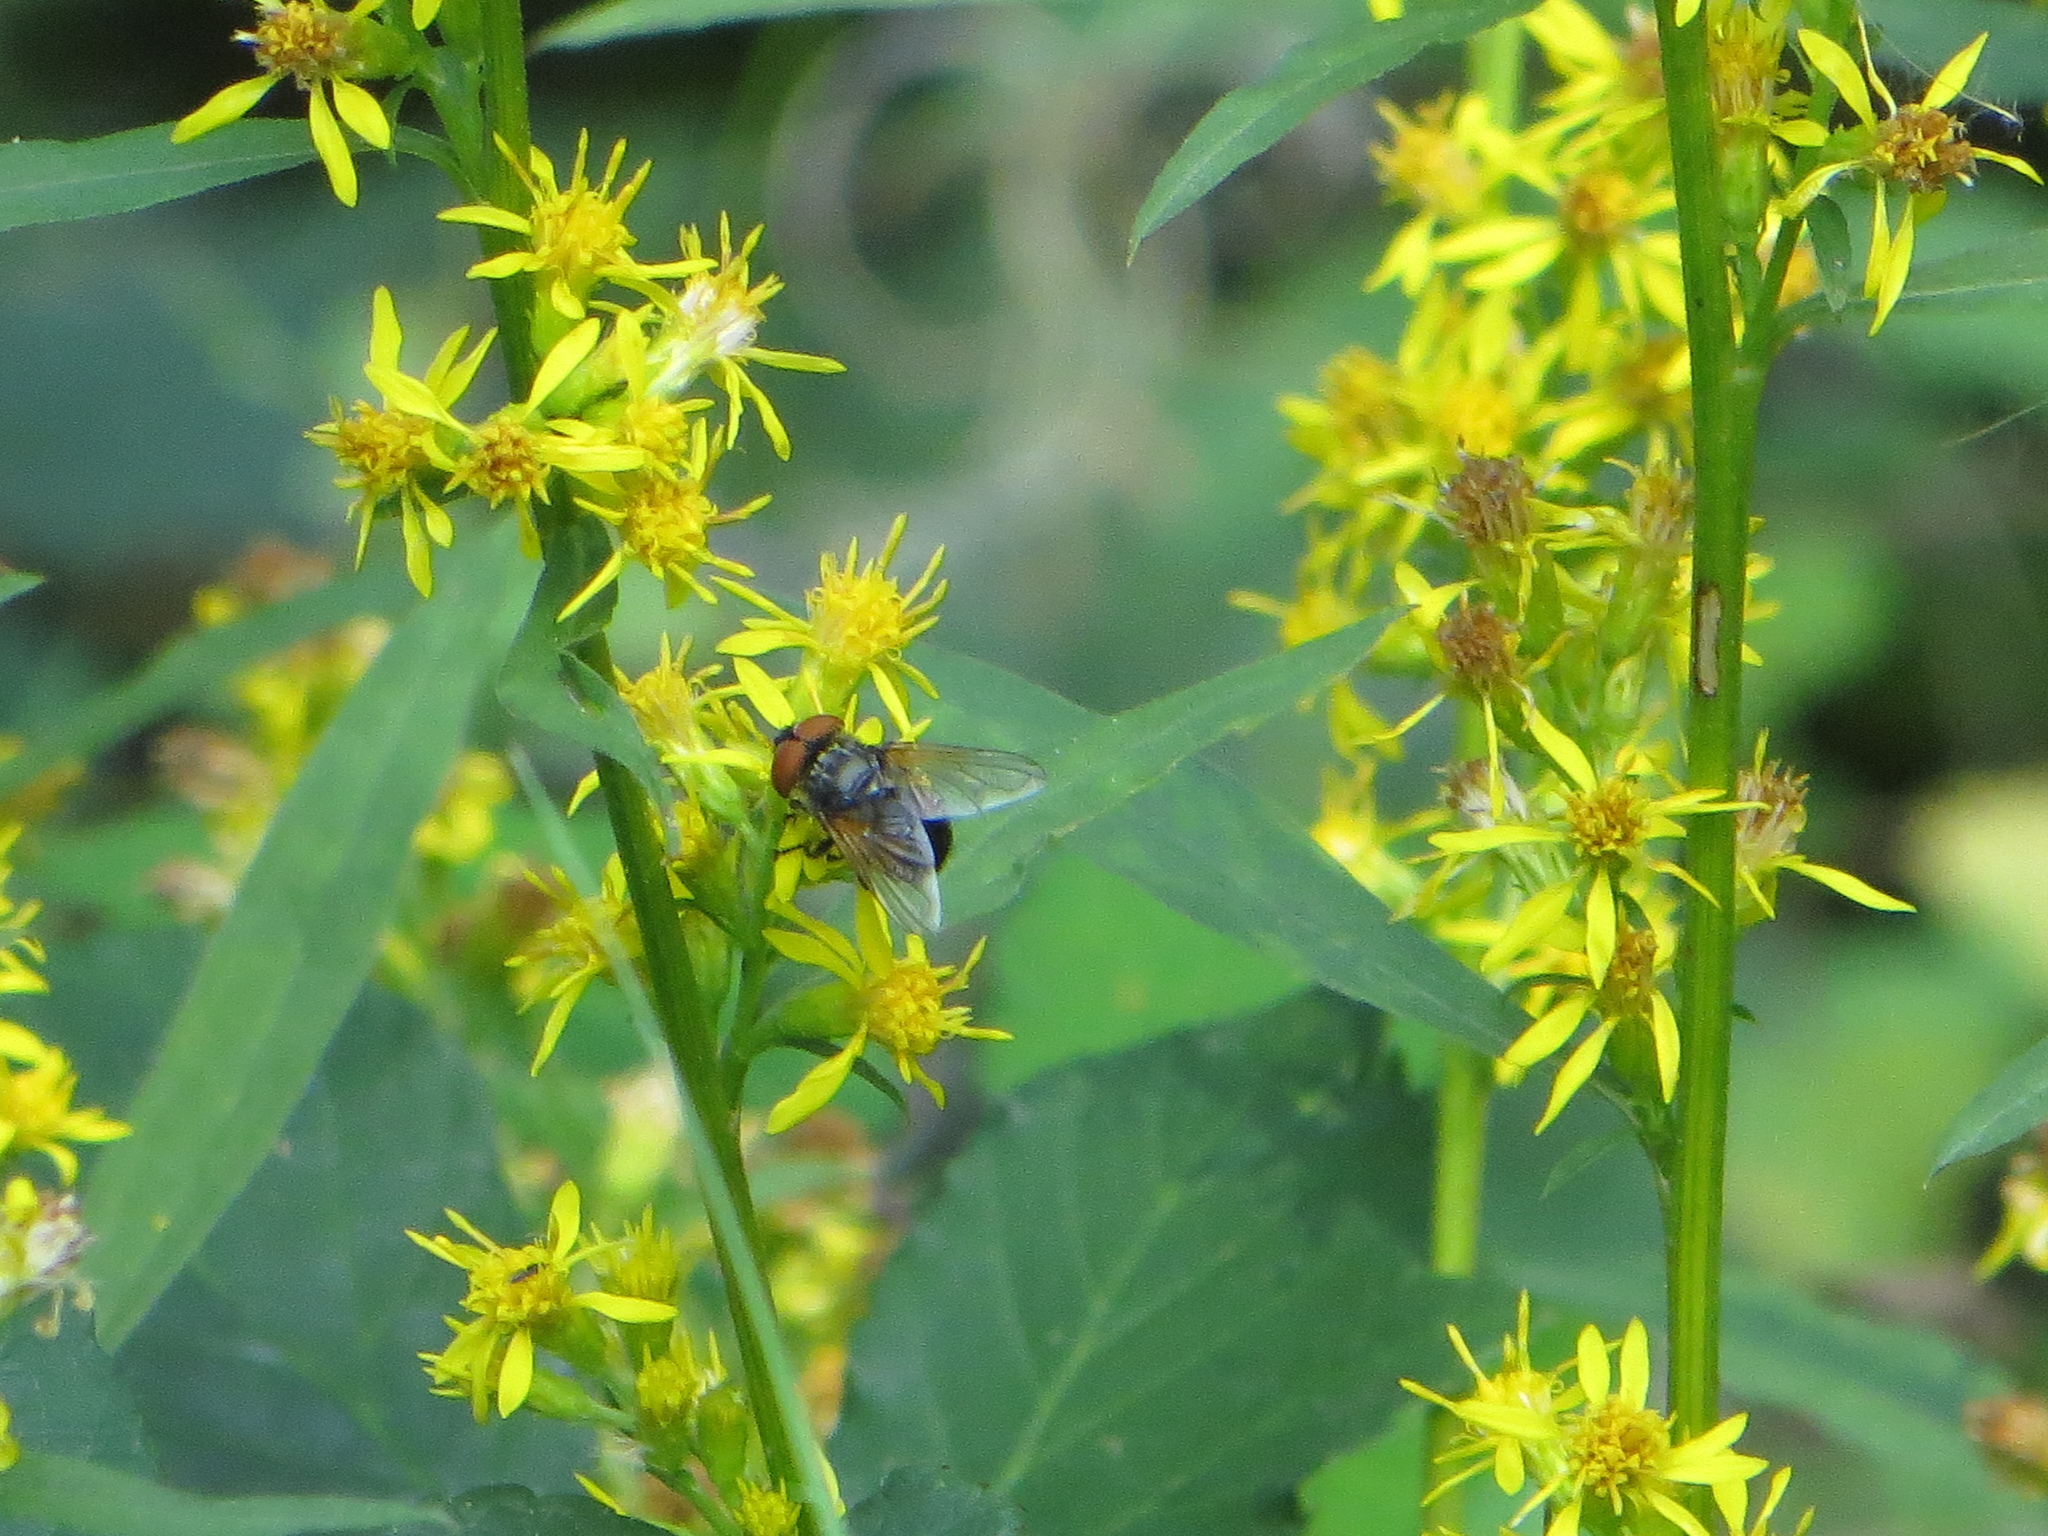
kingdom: Animalia
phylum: Arthropoda
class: Insecta
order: Diptera
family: Tachinidae
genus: Phasia
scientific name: Phasia aurigera
